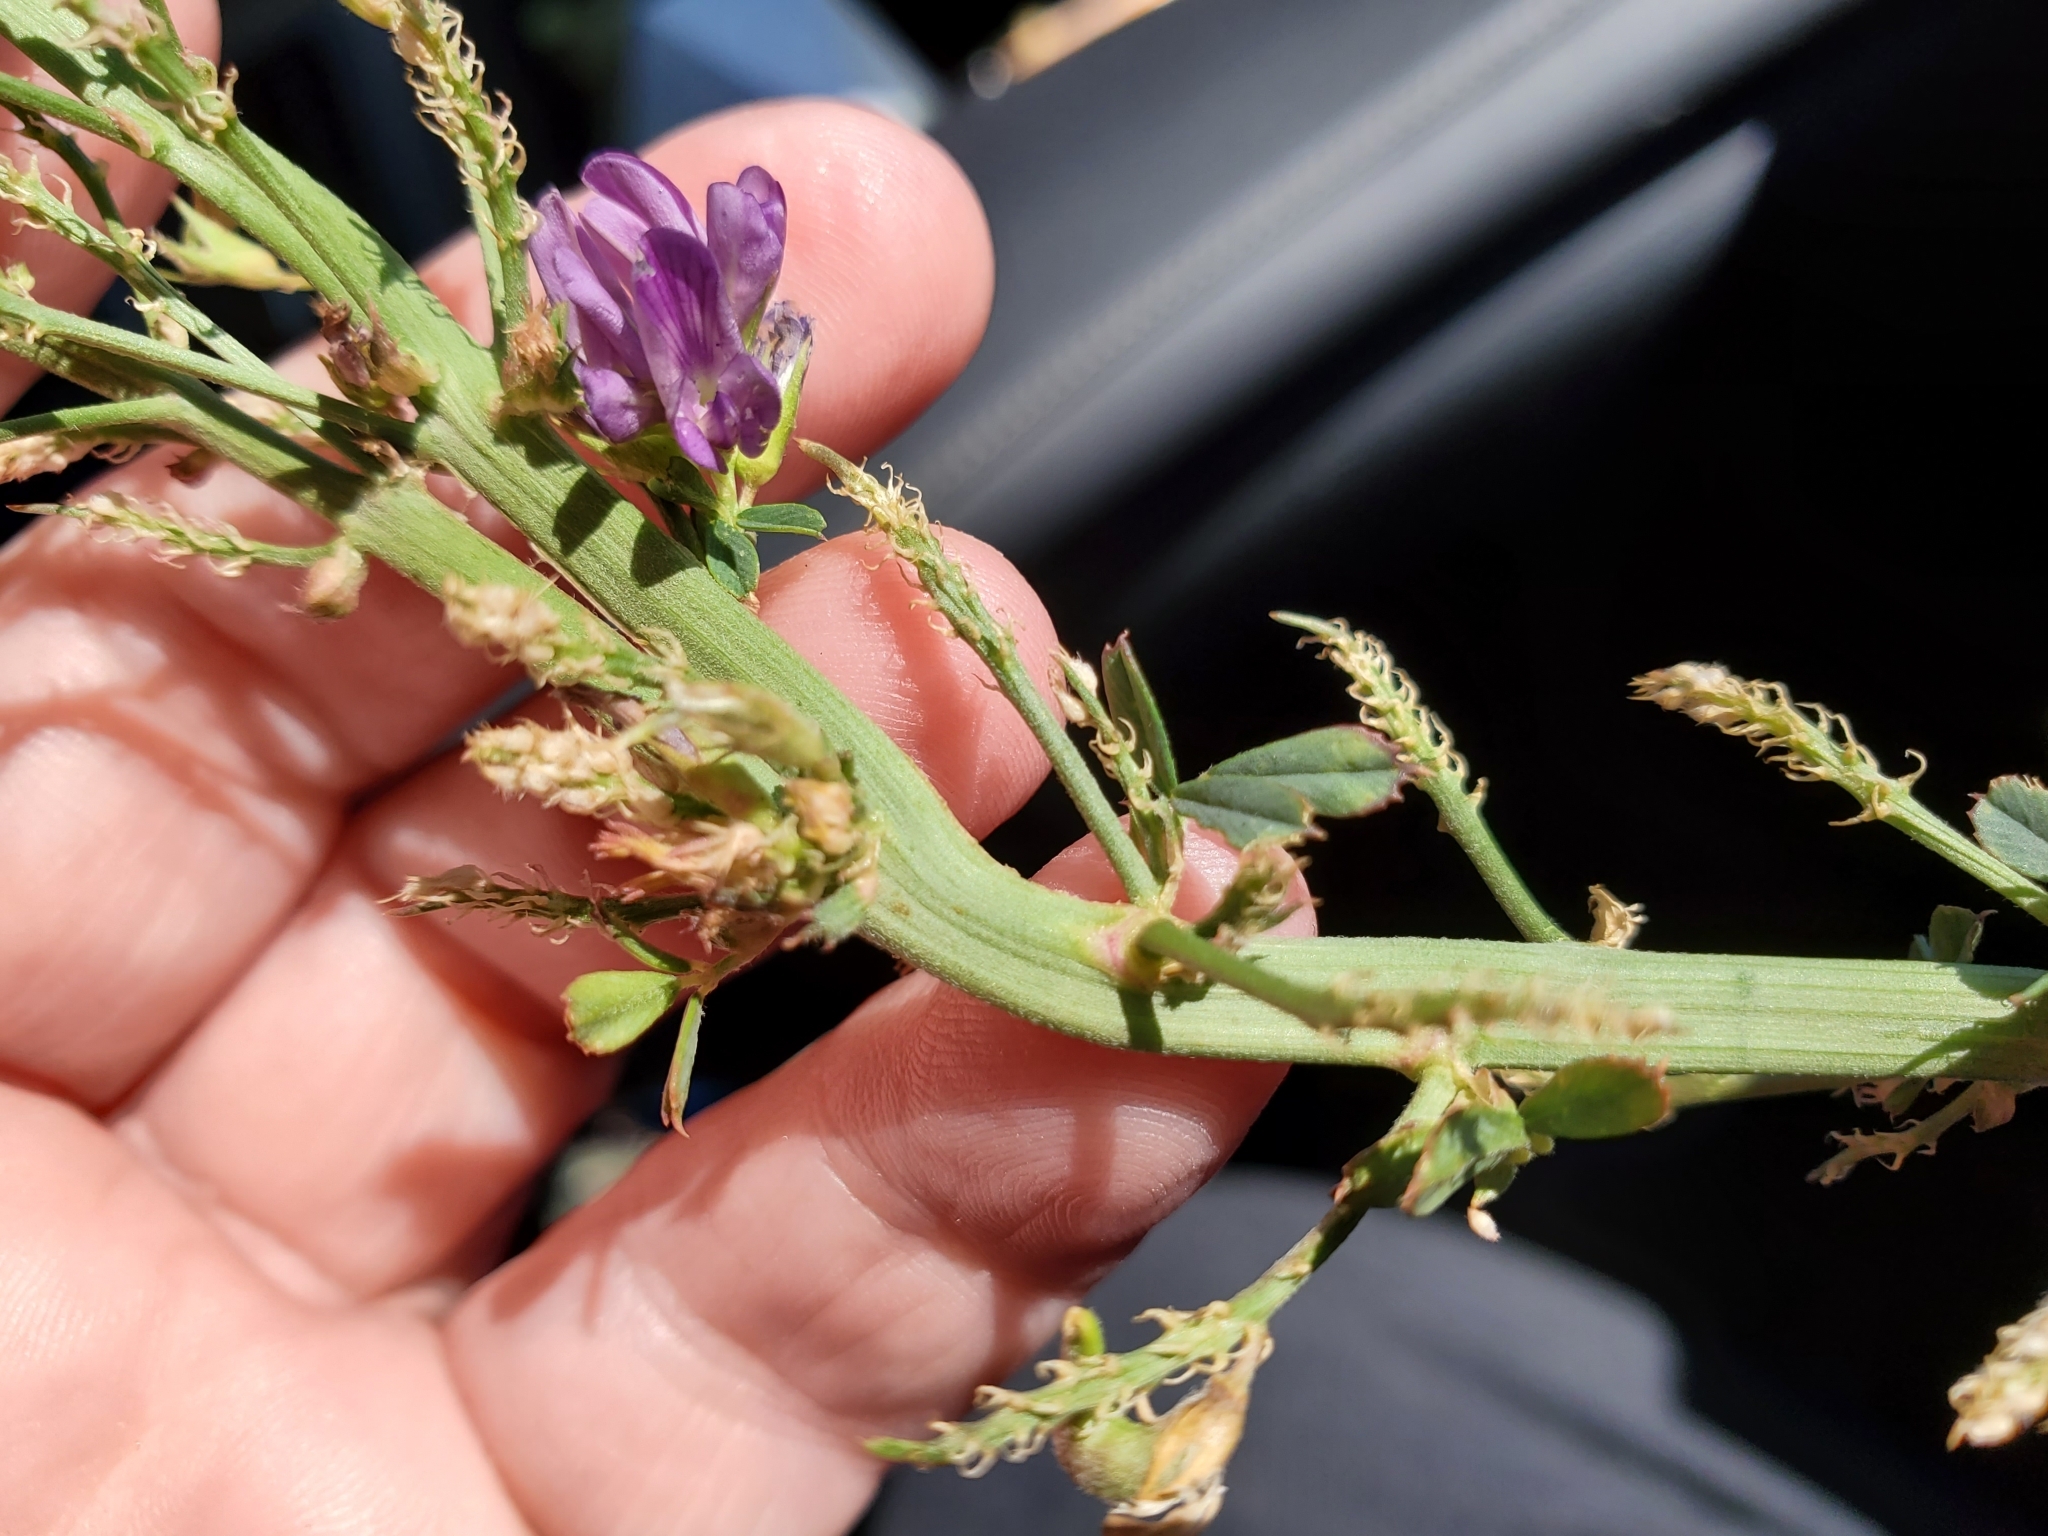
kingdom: Plantae
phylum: Tracheophyta
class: Magnoliopsida
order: Fabales
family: Fabaceae
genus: Medicago
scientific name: Medicago sativa
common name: Alfalfa
